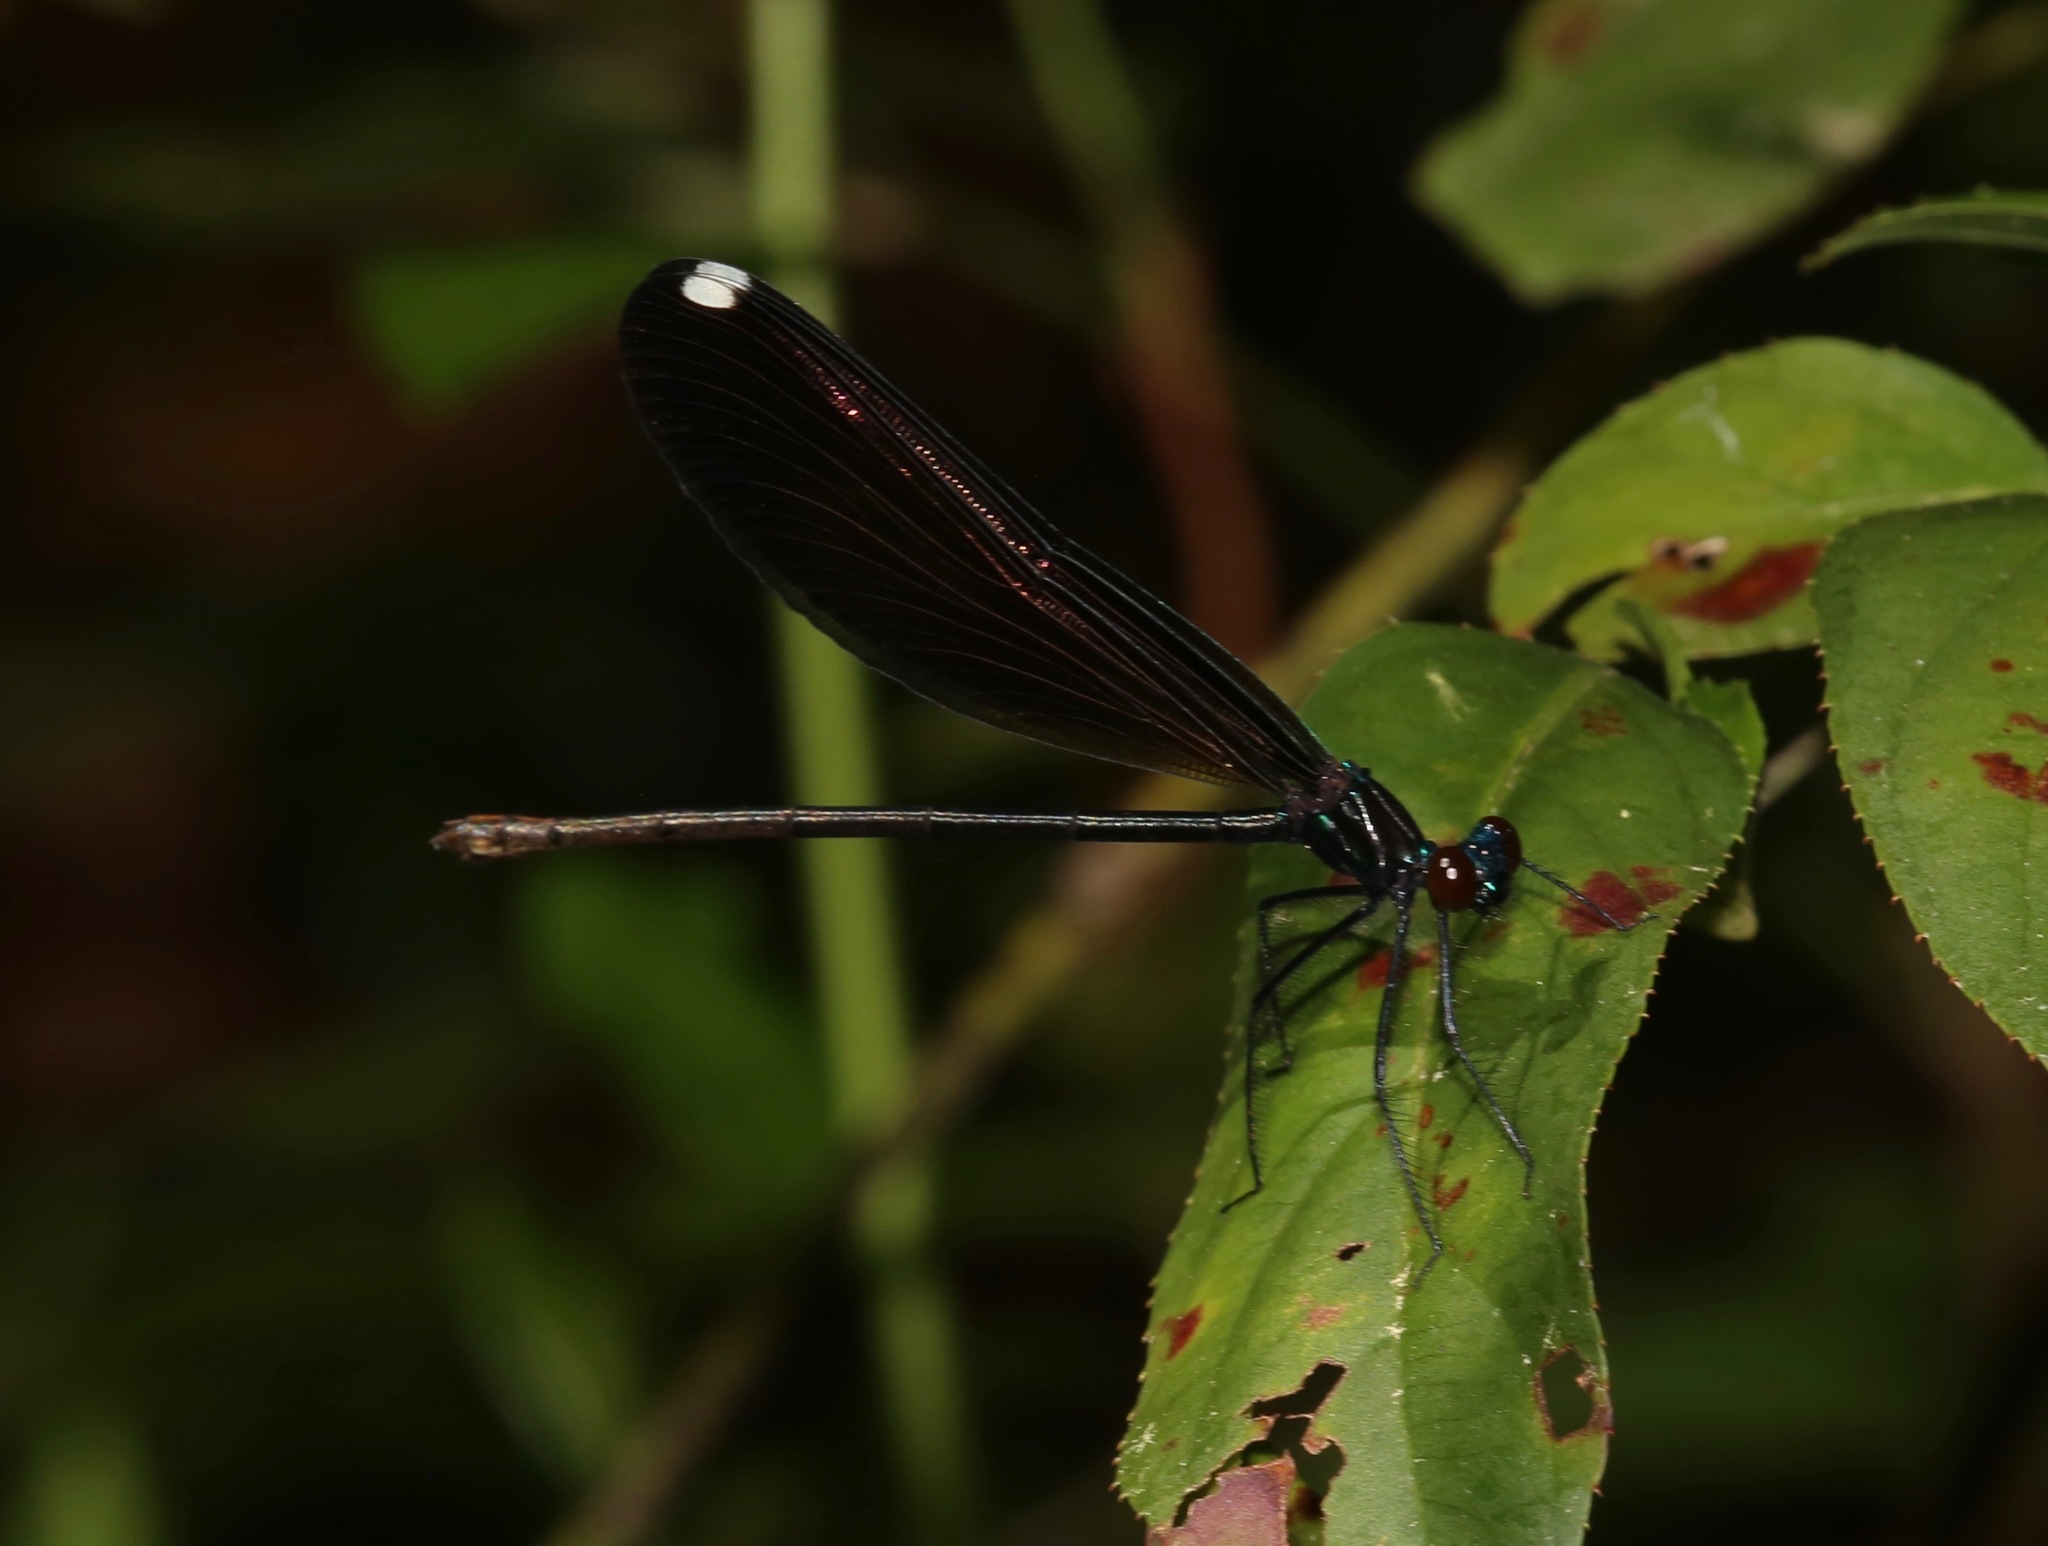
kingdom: Animalia
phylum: Arthropoda
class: Insecta
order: Odonata
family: Calopterygidae
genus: Calopteryx
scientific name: Calopteryx maculata
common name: Ebony jewelwing
